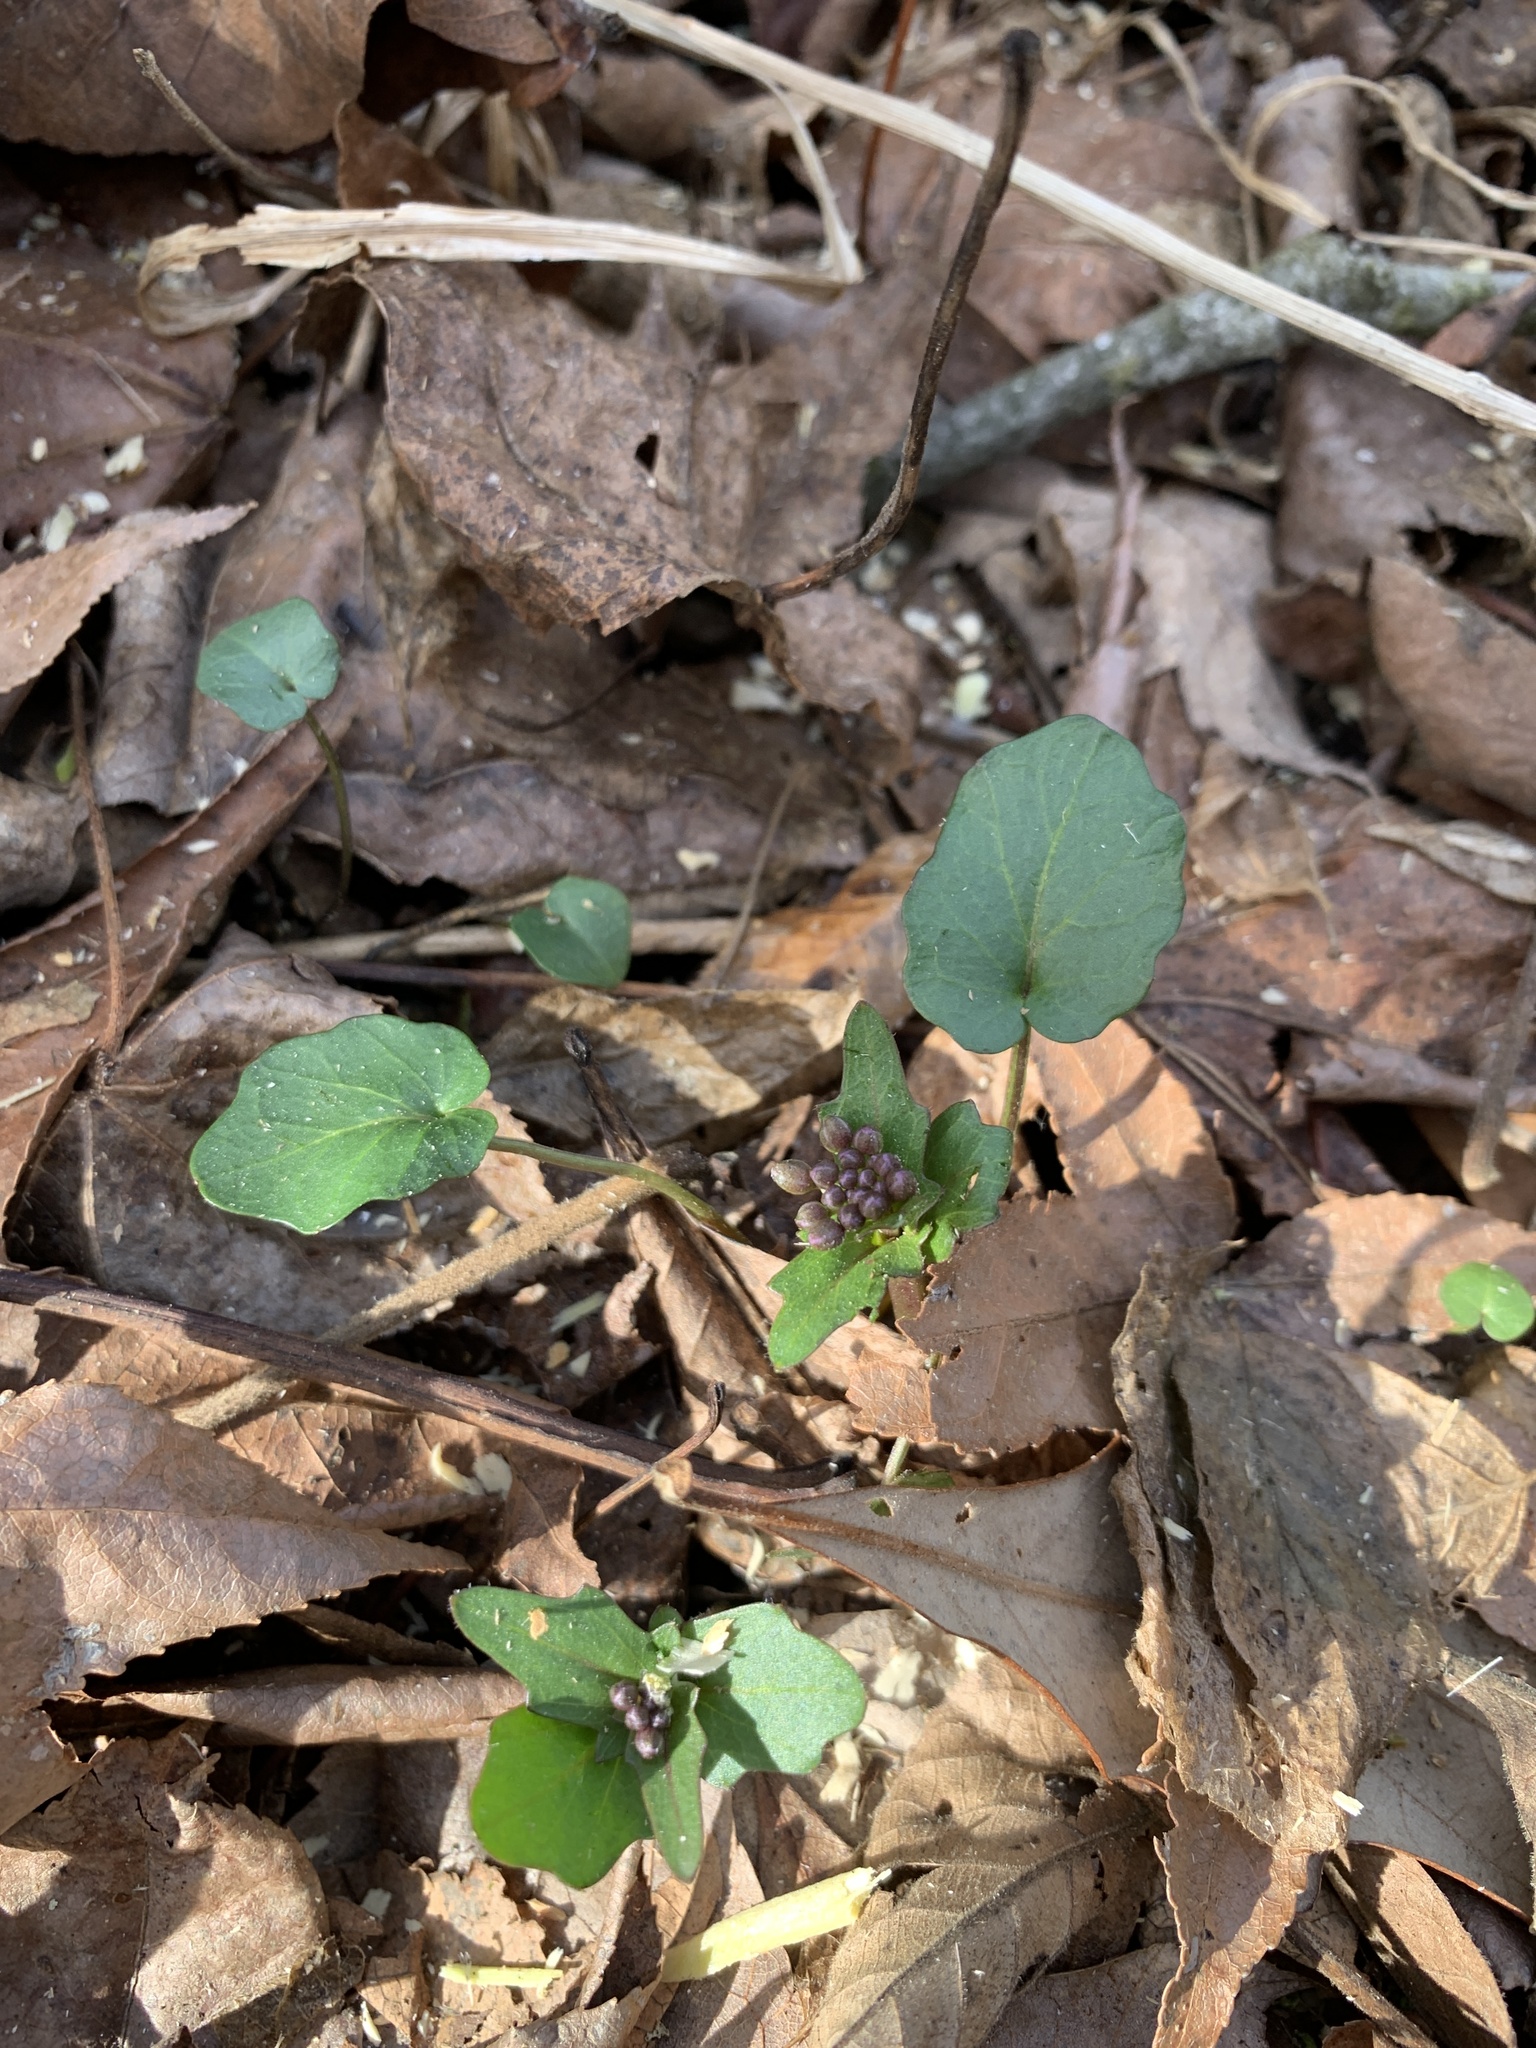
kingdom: Plantae
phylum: Tracheophyta
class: Magnoliopsida
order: Brassicales
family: Brassicaceae
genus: Cardamine
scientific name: Cardamine douglassii
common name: Purple cress
